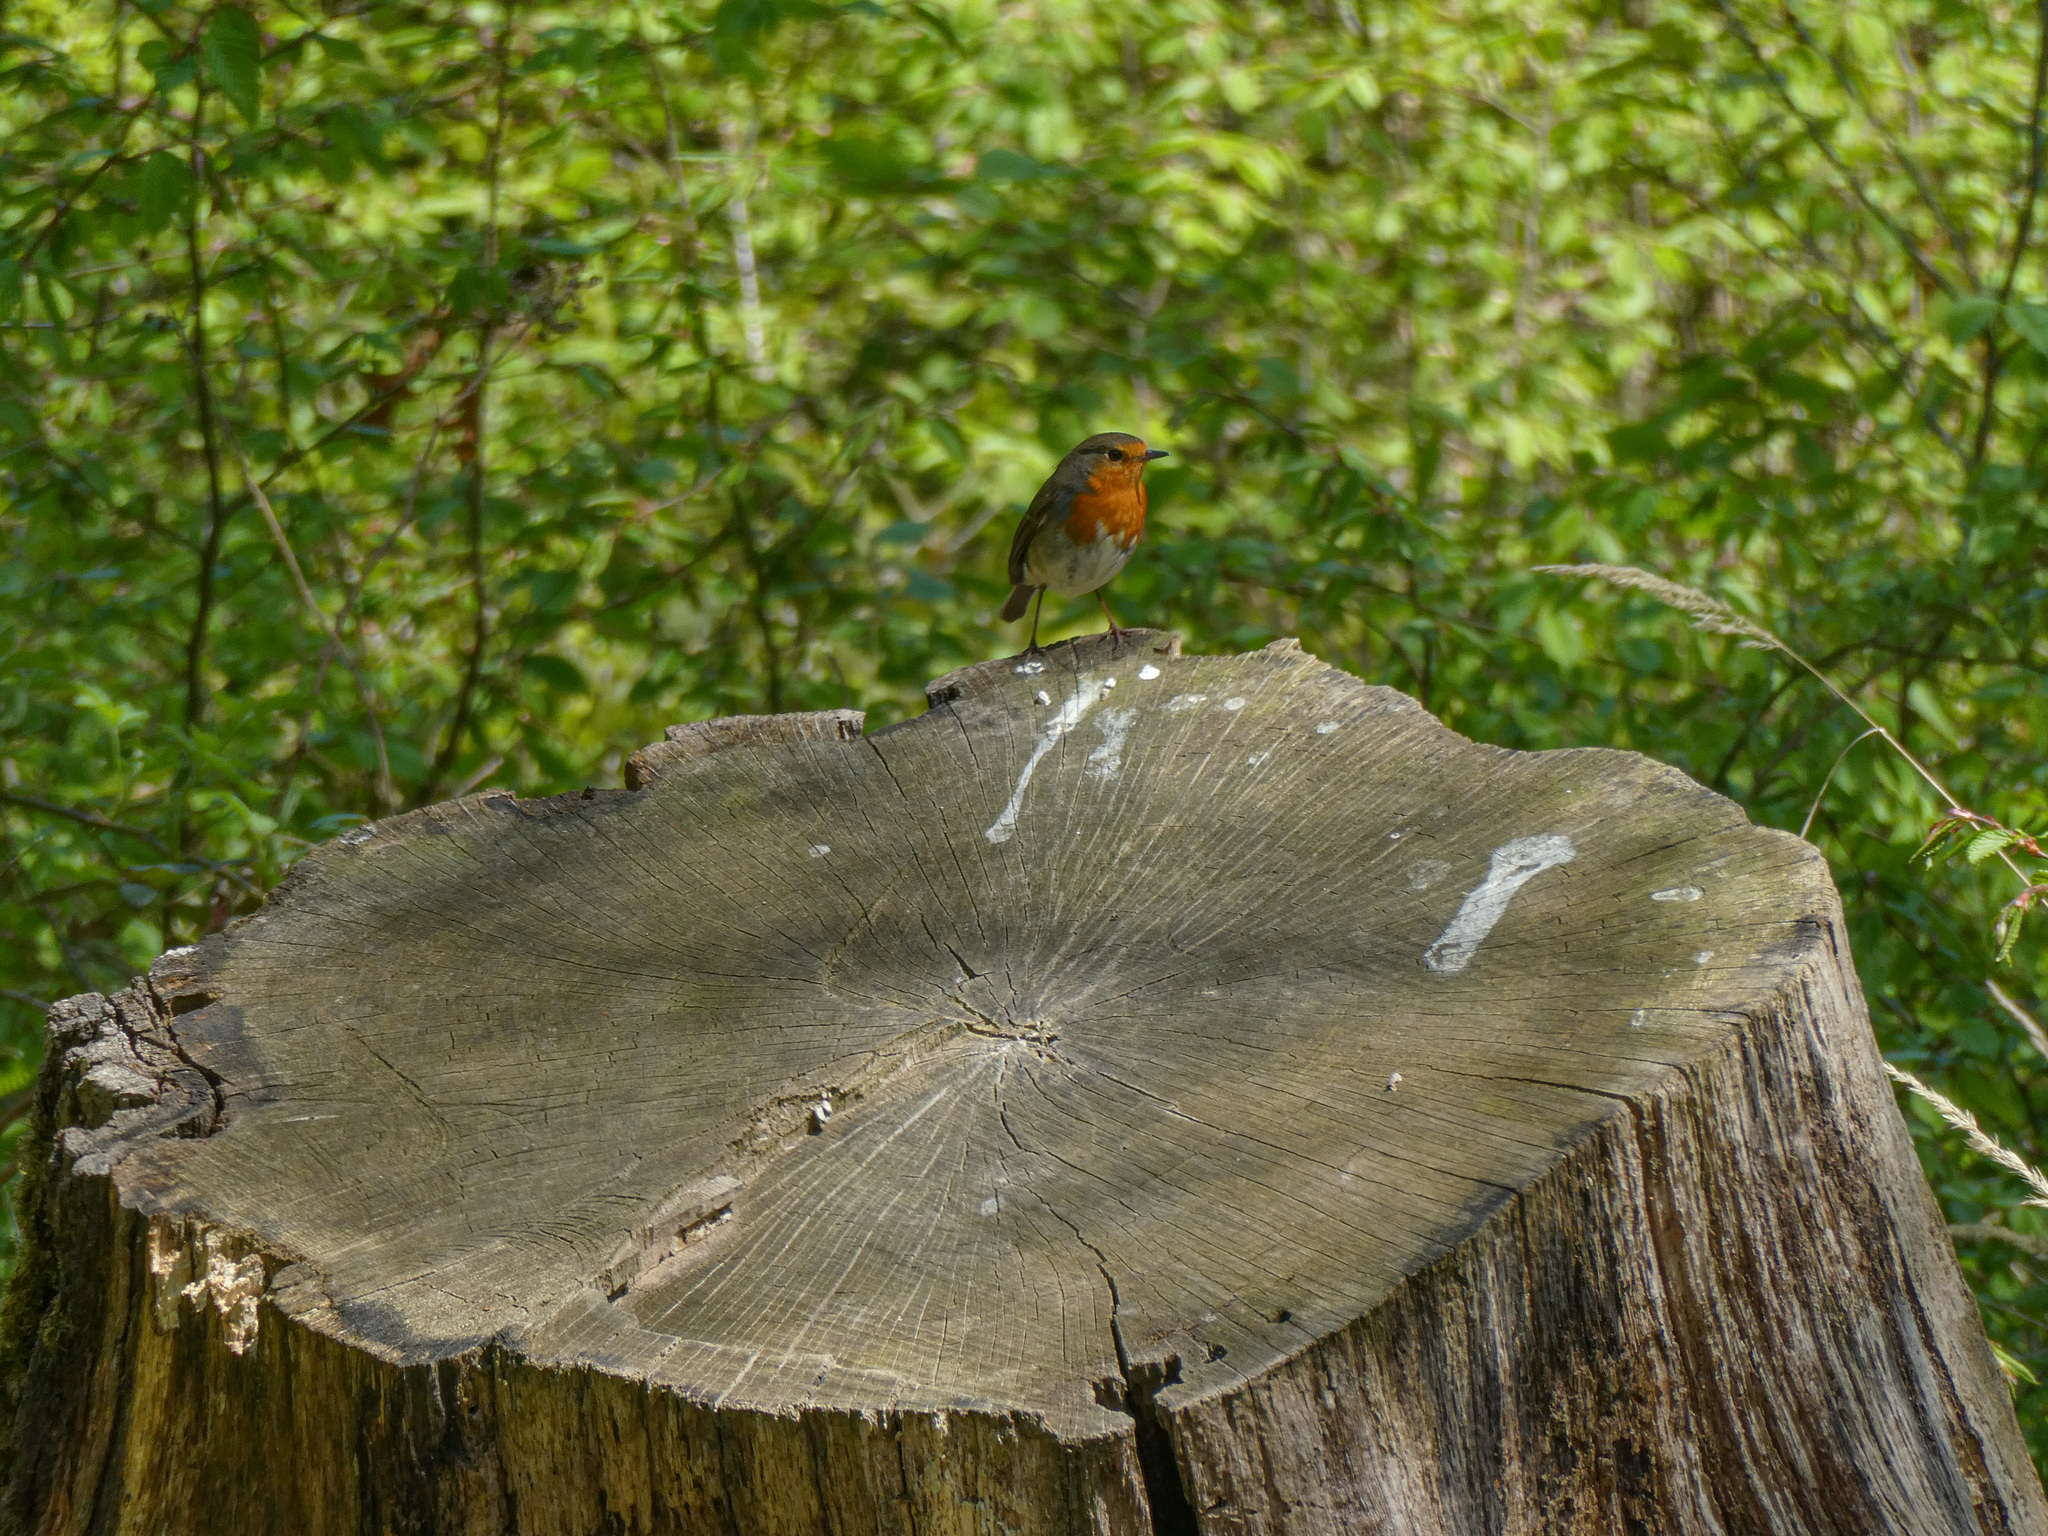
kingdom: Animalia
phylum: Chordata
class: Aves
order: Passeriformes
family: Muscicapidae
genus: Erithacus
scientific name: Erithacus rubecula
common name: European robin
